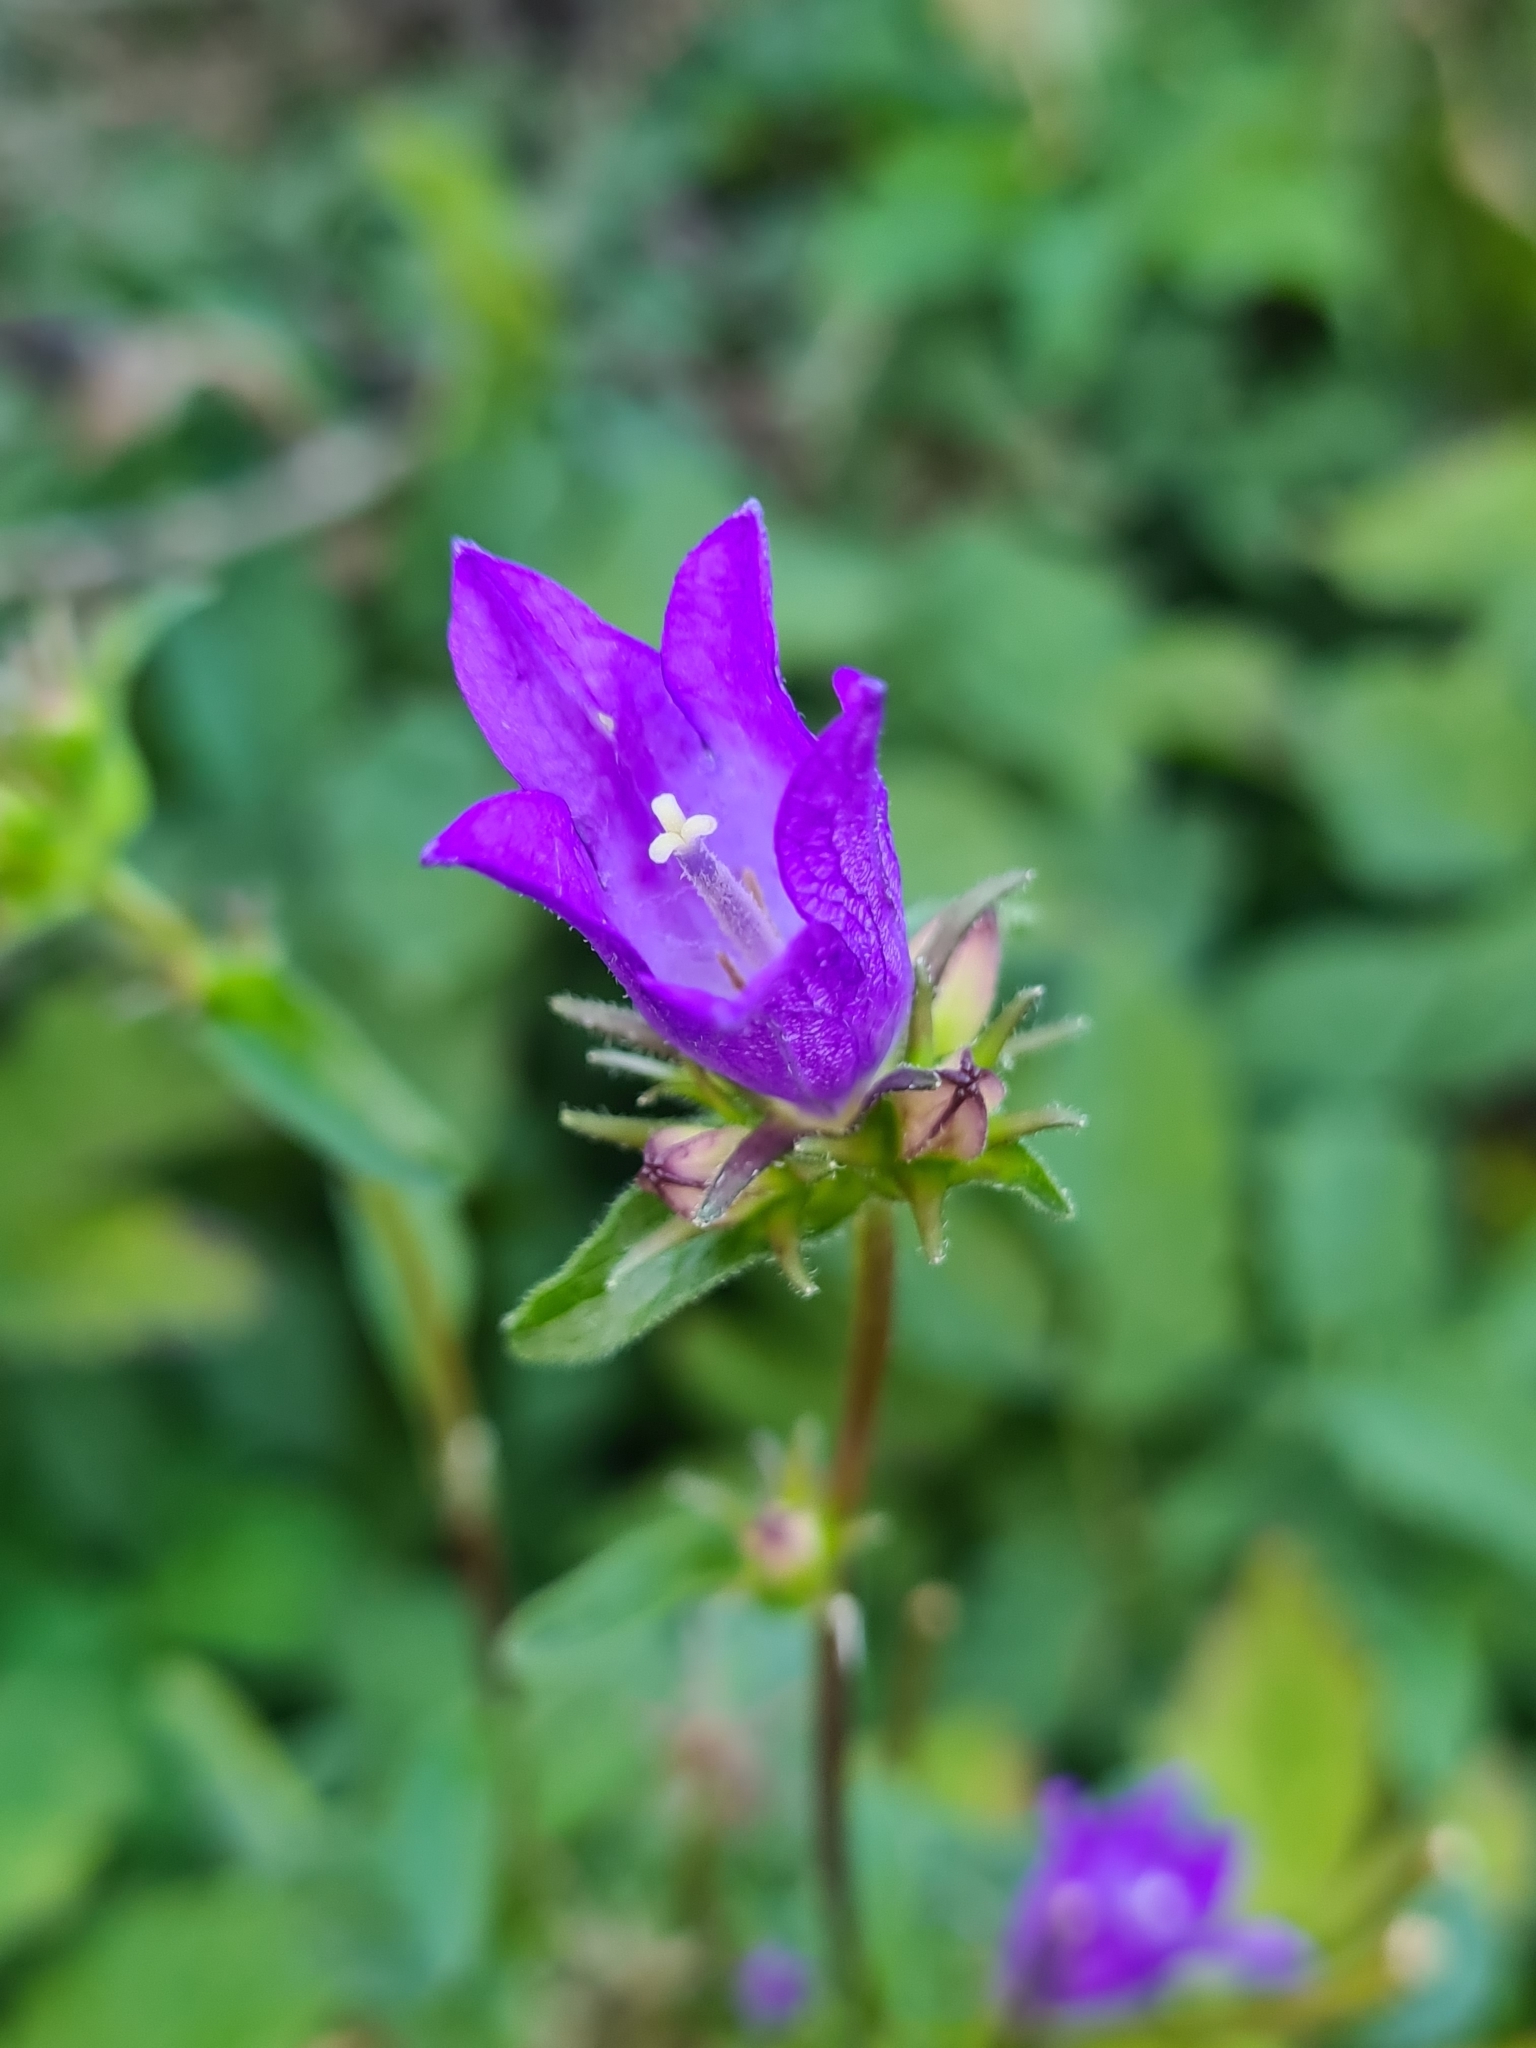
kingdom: Plantae
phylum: Tracheophyta
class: Magnoliopsida
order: Asterales
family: Campanulaceae
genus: Campanula
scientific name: Campanula glomerata
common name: Clustered bellflower
